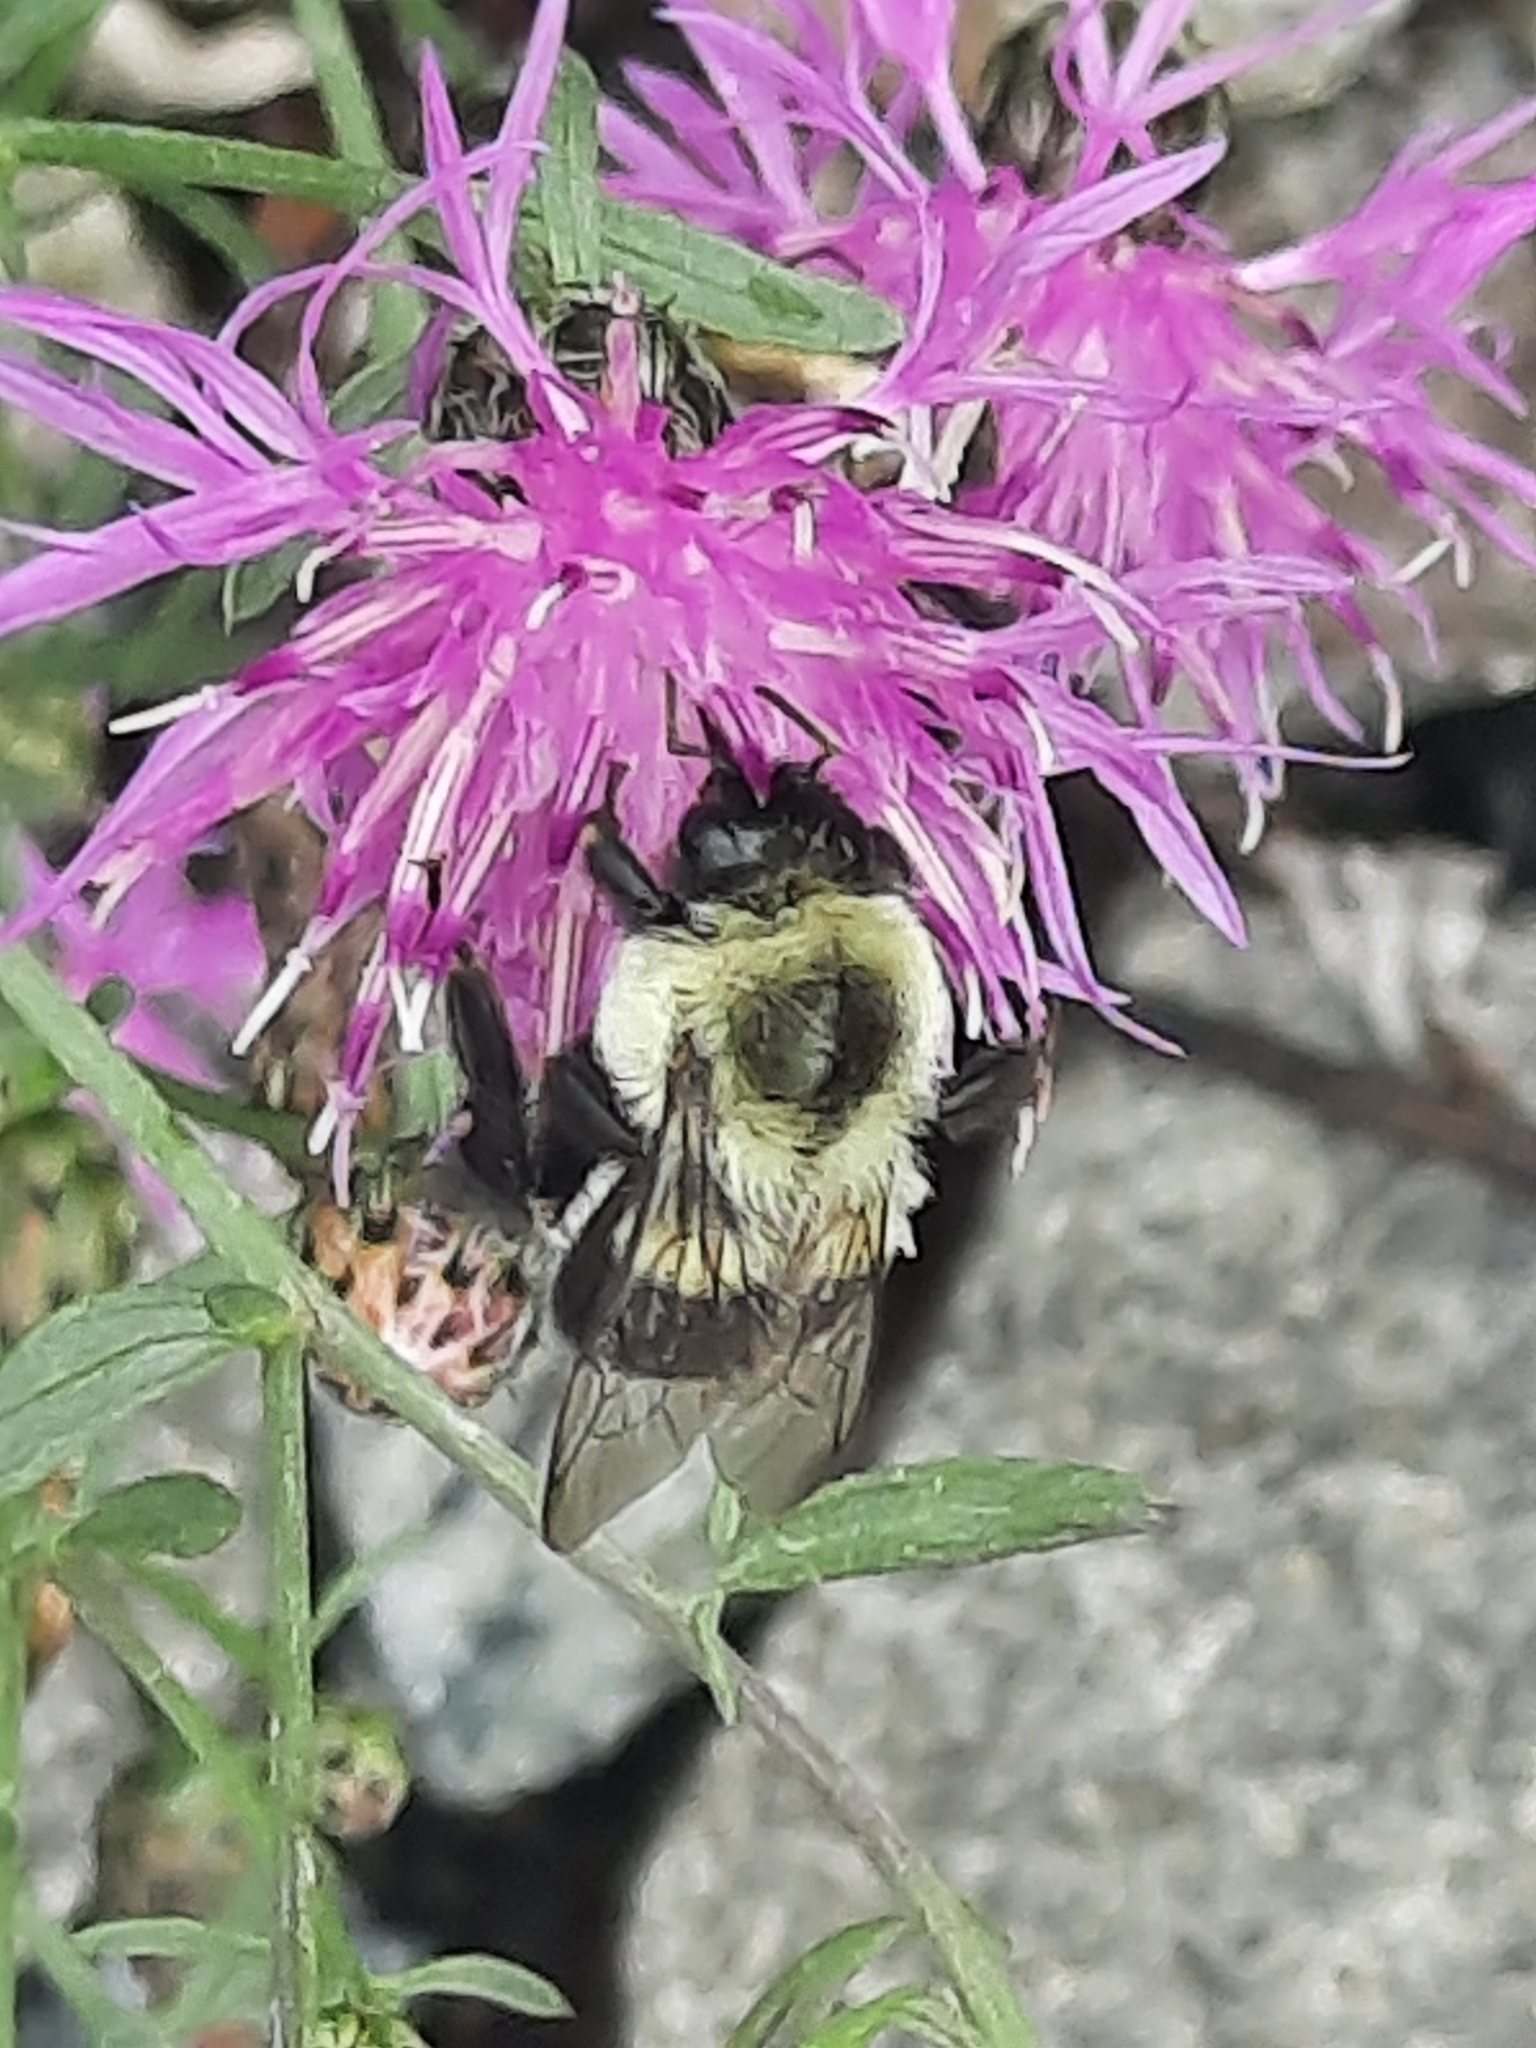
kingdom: Animalia
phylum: Arthropoda
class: Insecta
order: Hymenoptera
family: Apidae
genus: Bombus
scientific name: Bombus impatiens
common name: Common eastern bumble bee
